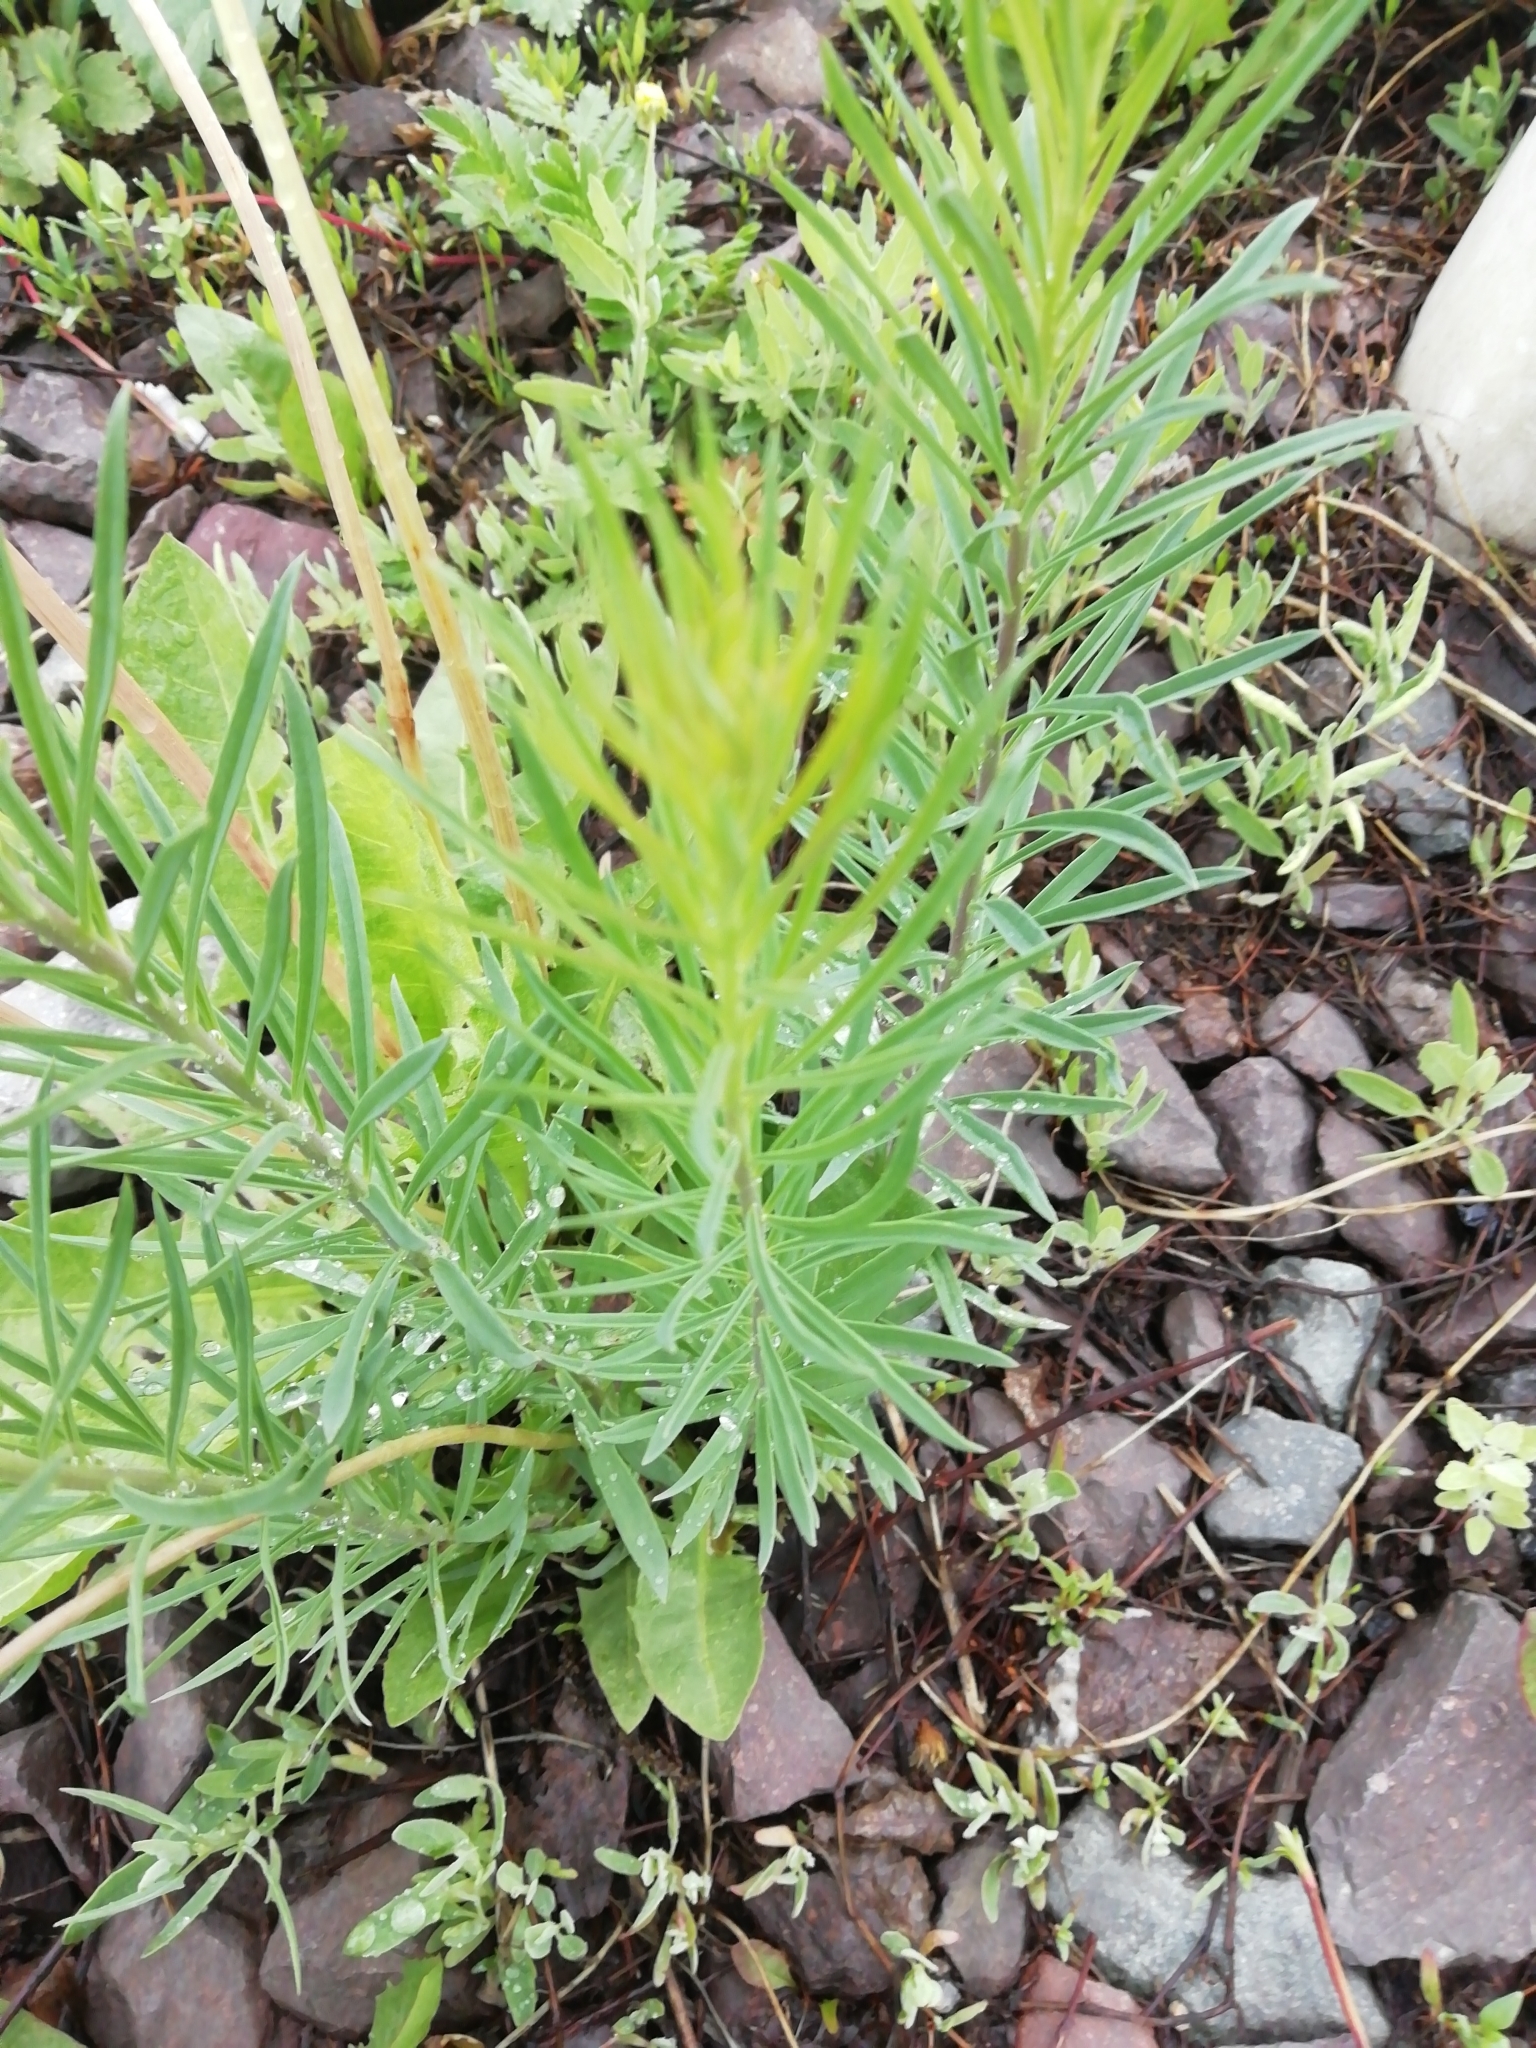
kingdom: Plantae
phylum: Tracheophyta
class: Magnoliopsida
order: Lamiales
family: Plantaginaceae
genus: Linaria
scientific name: Linaria vulgaris
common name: Butter and eggs
